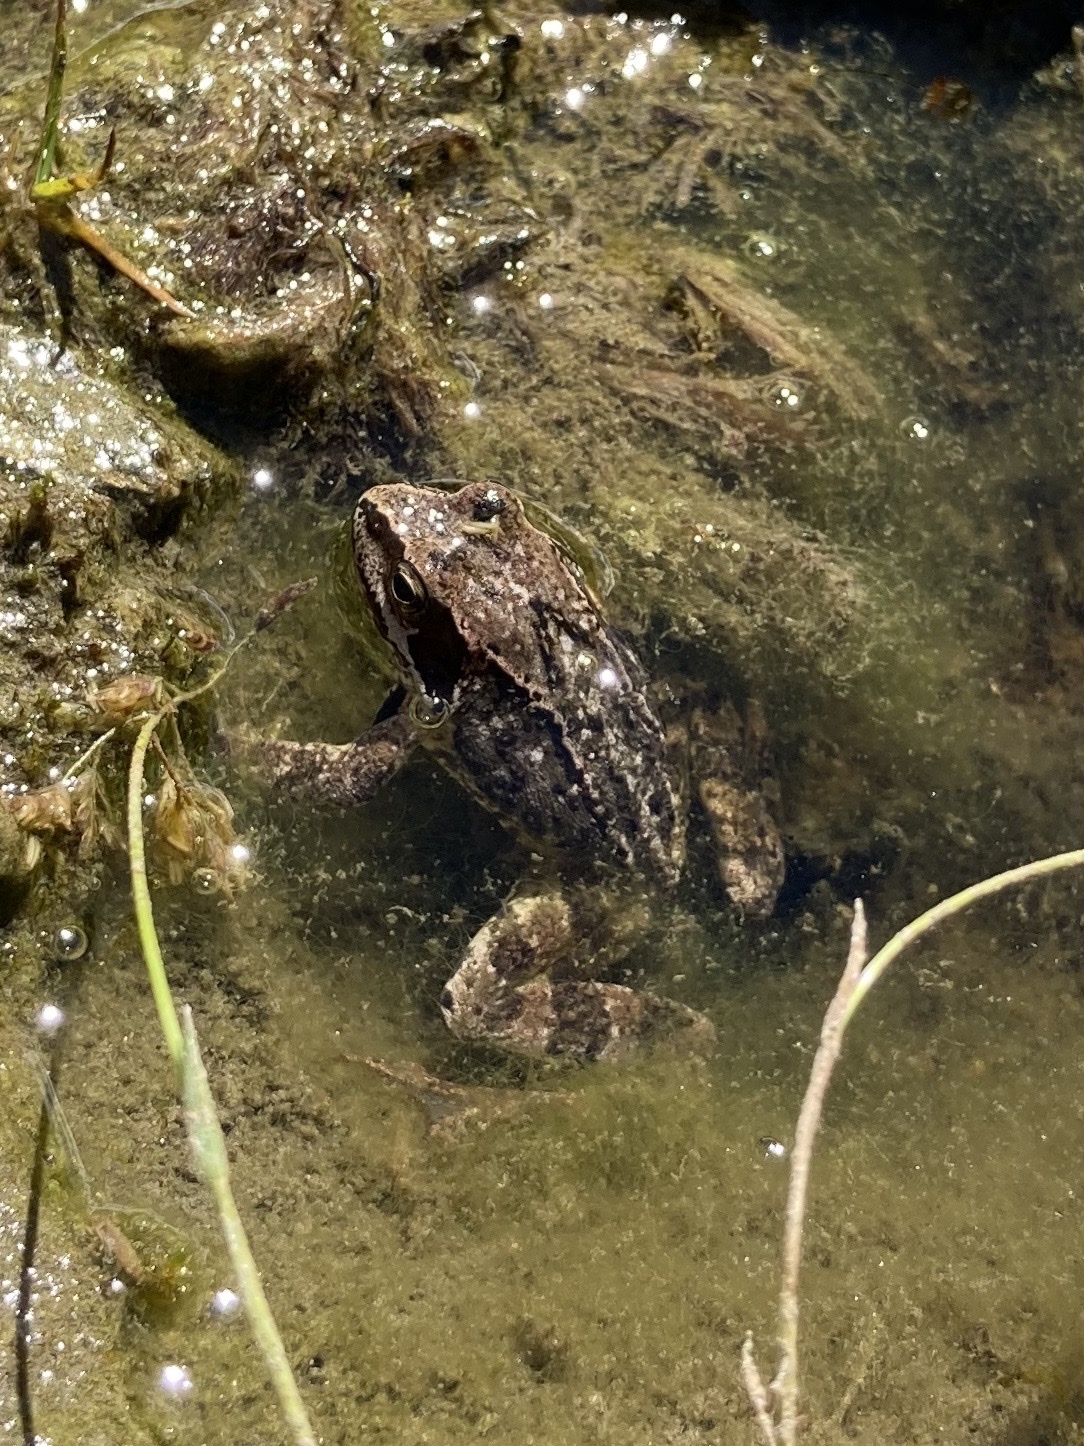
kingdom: Animalia
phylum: Chordata
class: Amphibia
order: Anura
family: Ranidae
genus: Rana
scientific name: Rana temporaria
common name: Common frog
